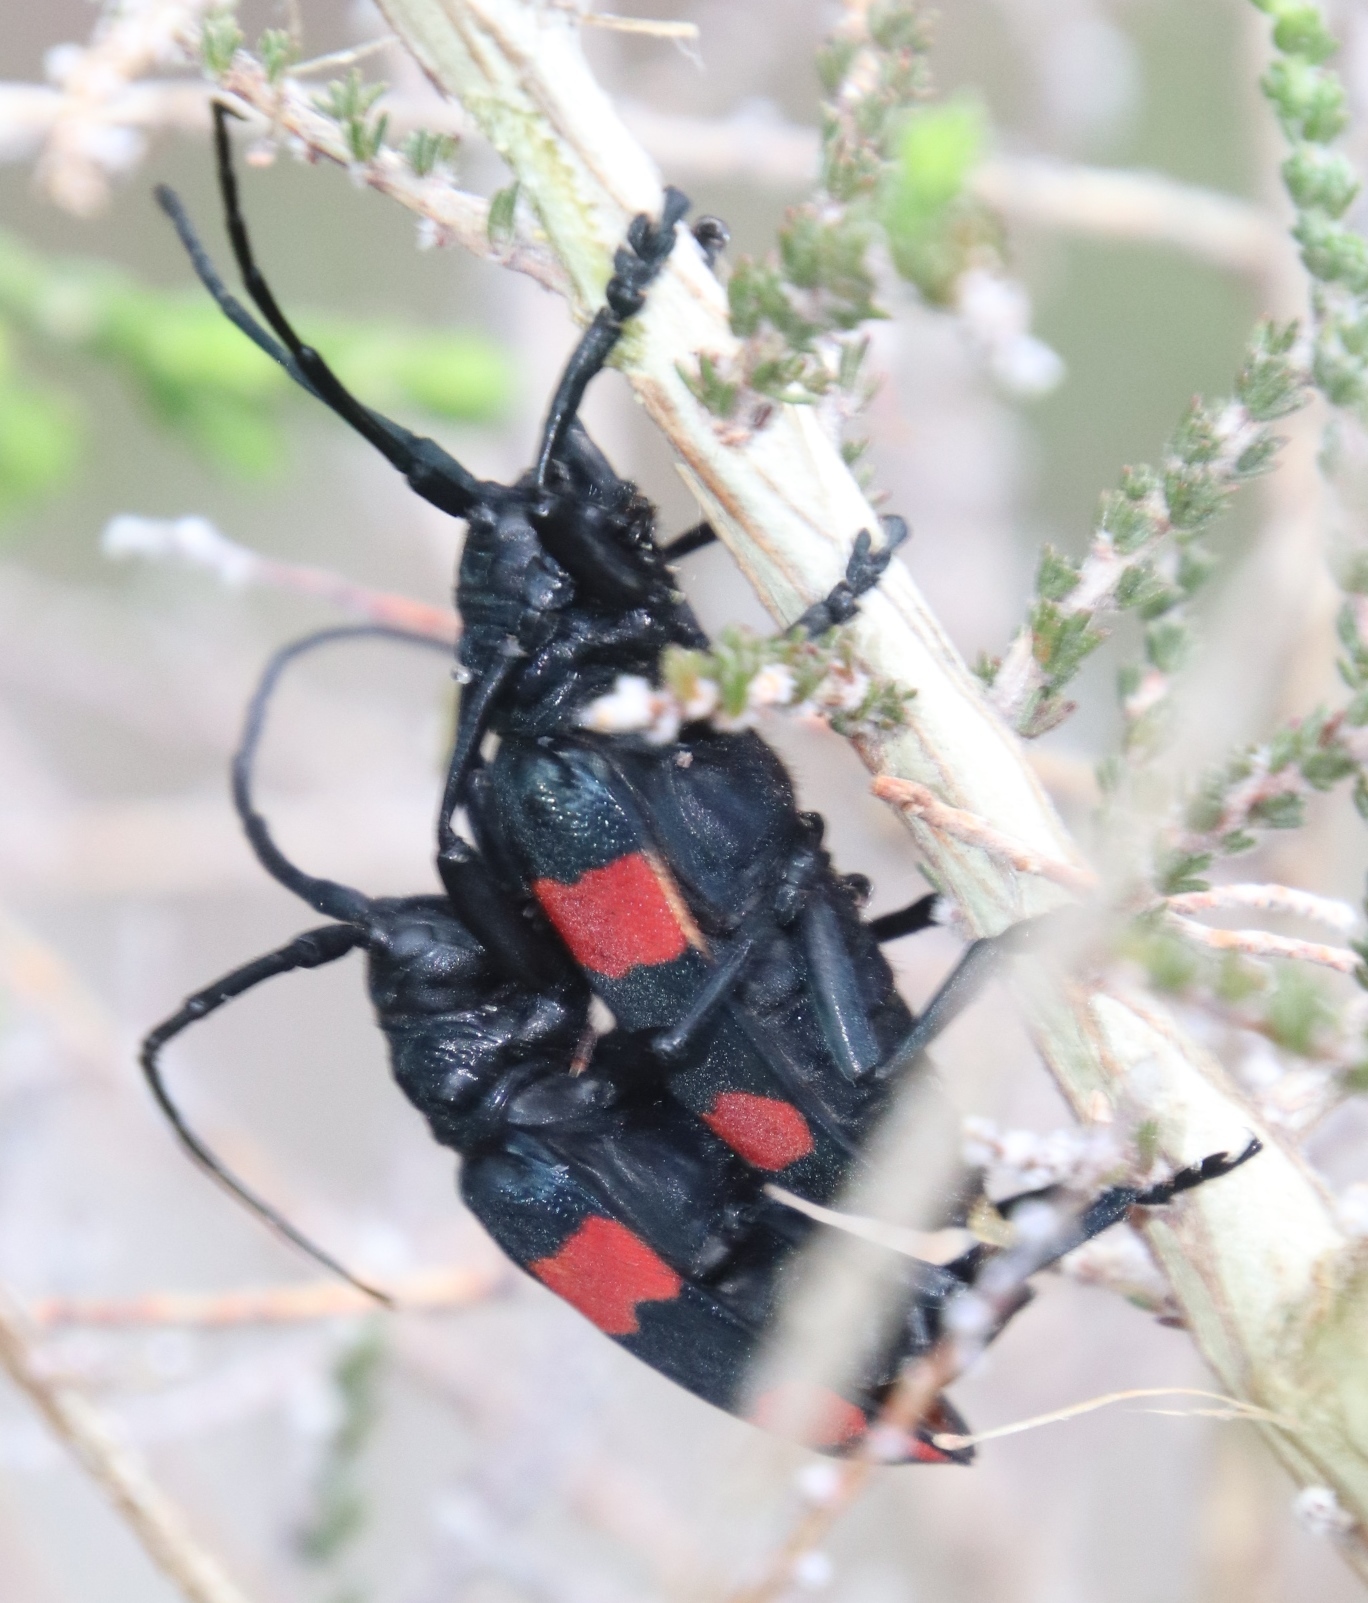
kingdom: Animalia
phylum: Arthropoda
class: Insecta
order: Coleoptera
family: Cerambycidae
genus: Ceroplesis
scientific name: Ceroplesis aethiops
